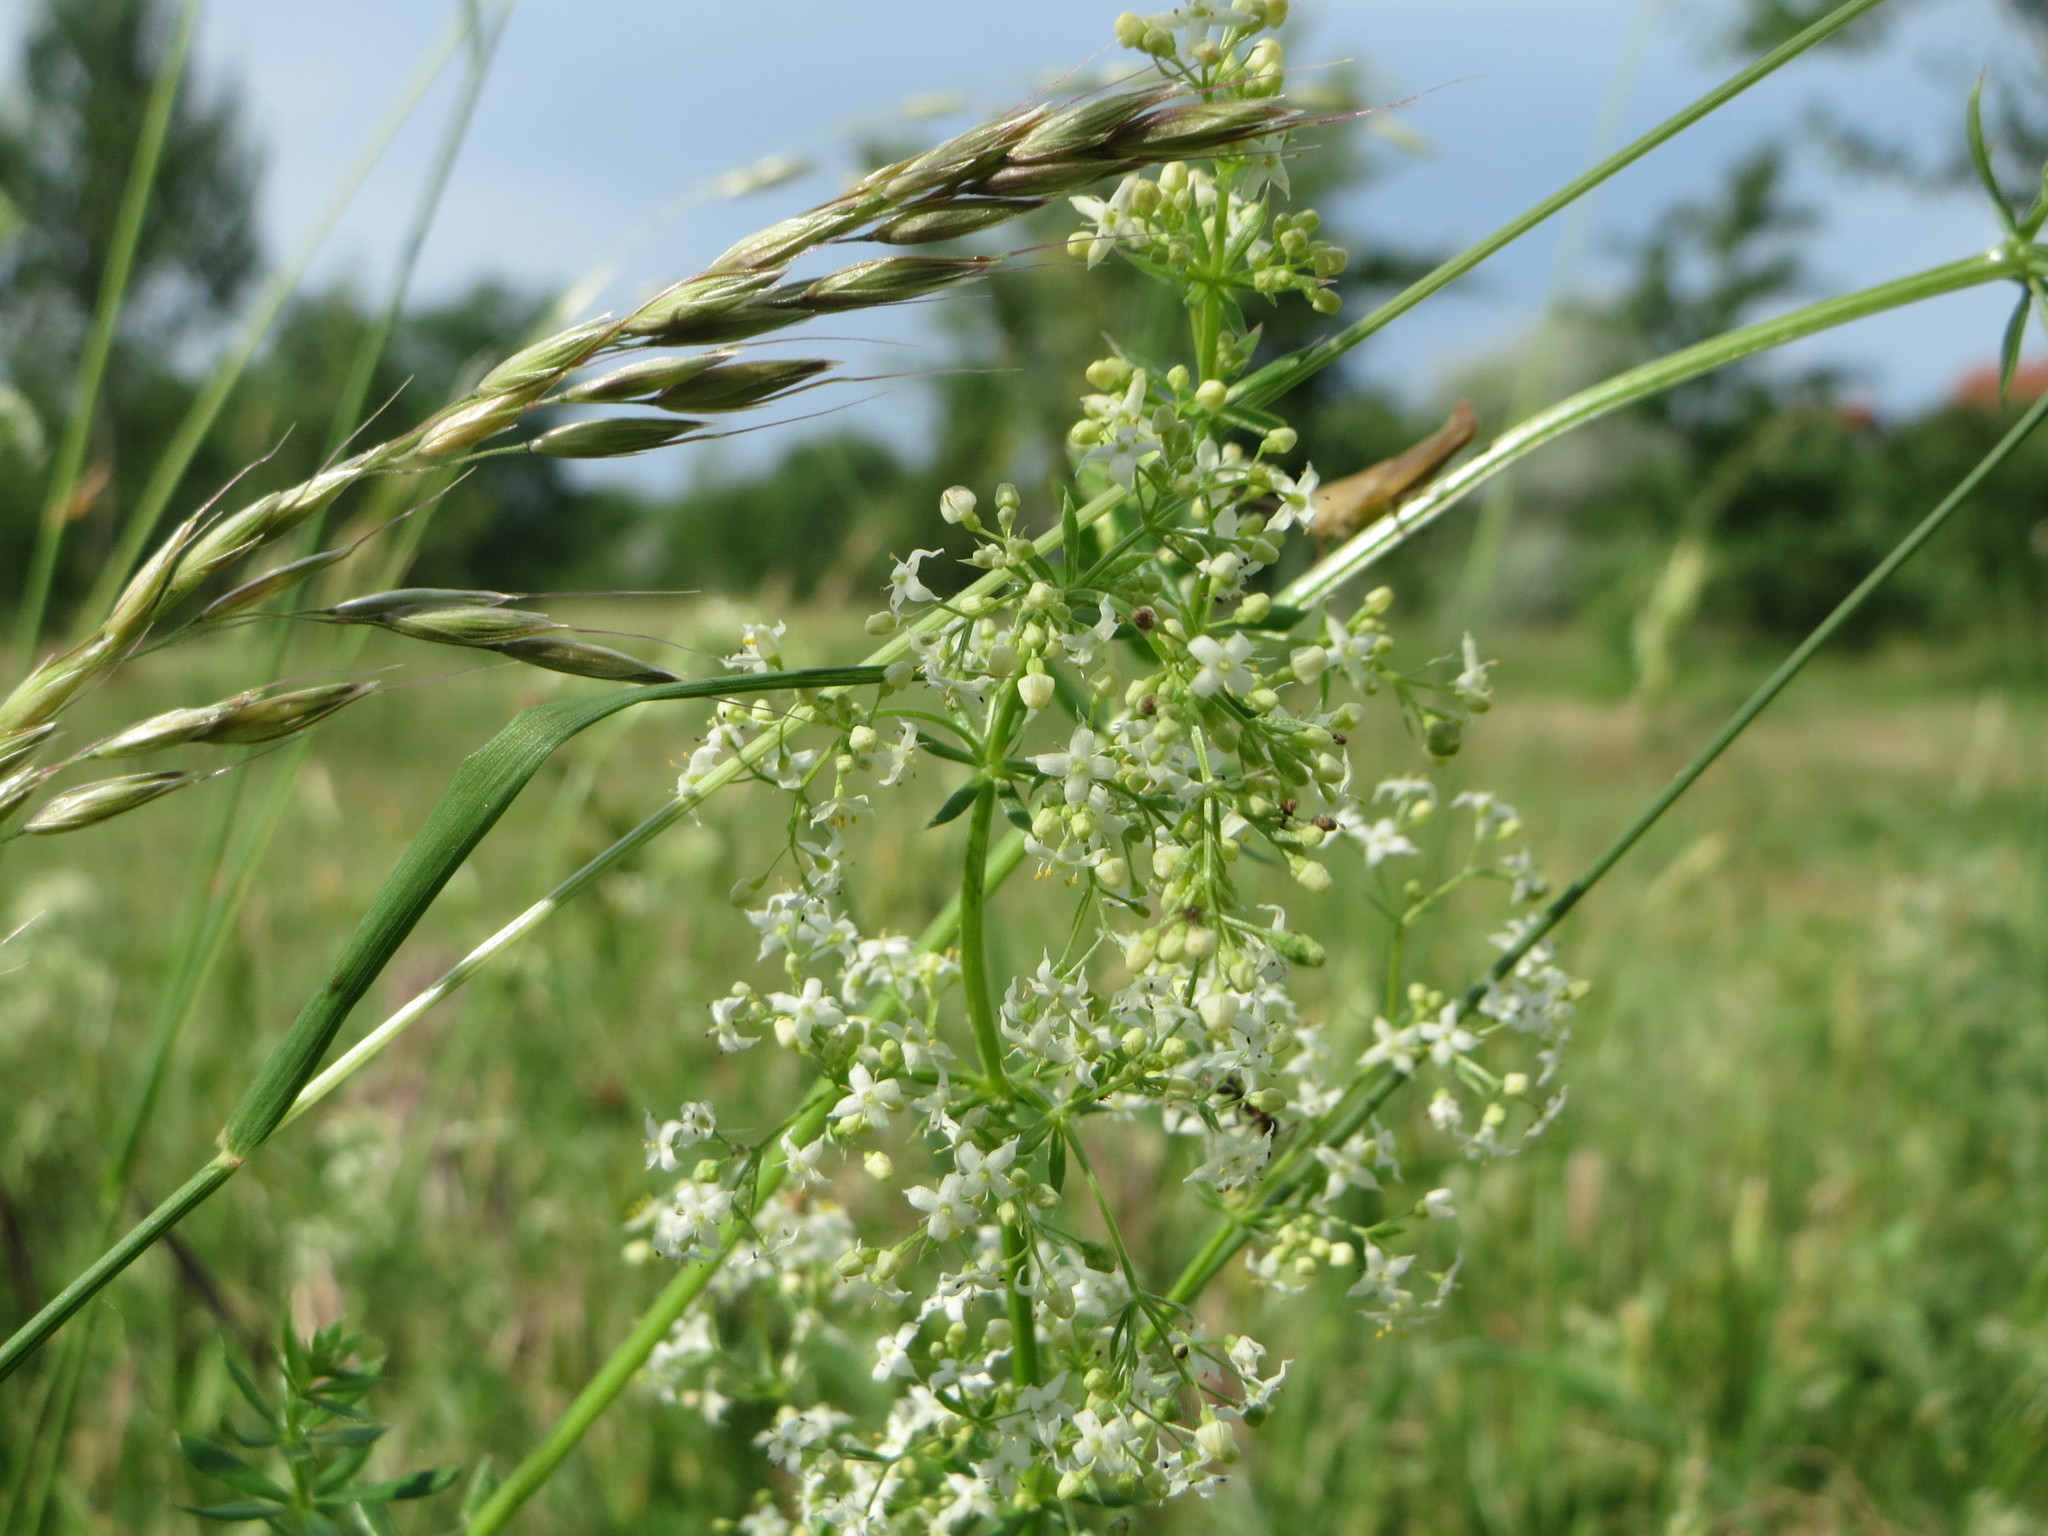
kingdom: Plantae
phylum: Tracheophyta
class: Magnoliopsida
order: Gentianales
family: Rubiaceae
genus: Galium
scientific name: Galium mollugo
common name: Hedge bedstraw
